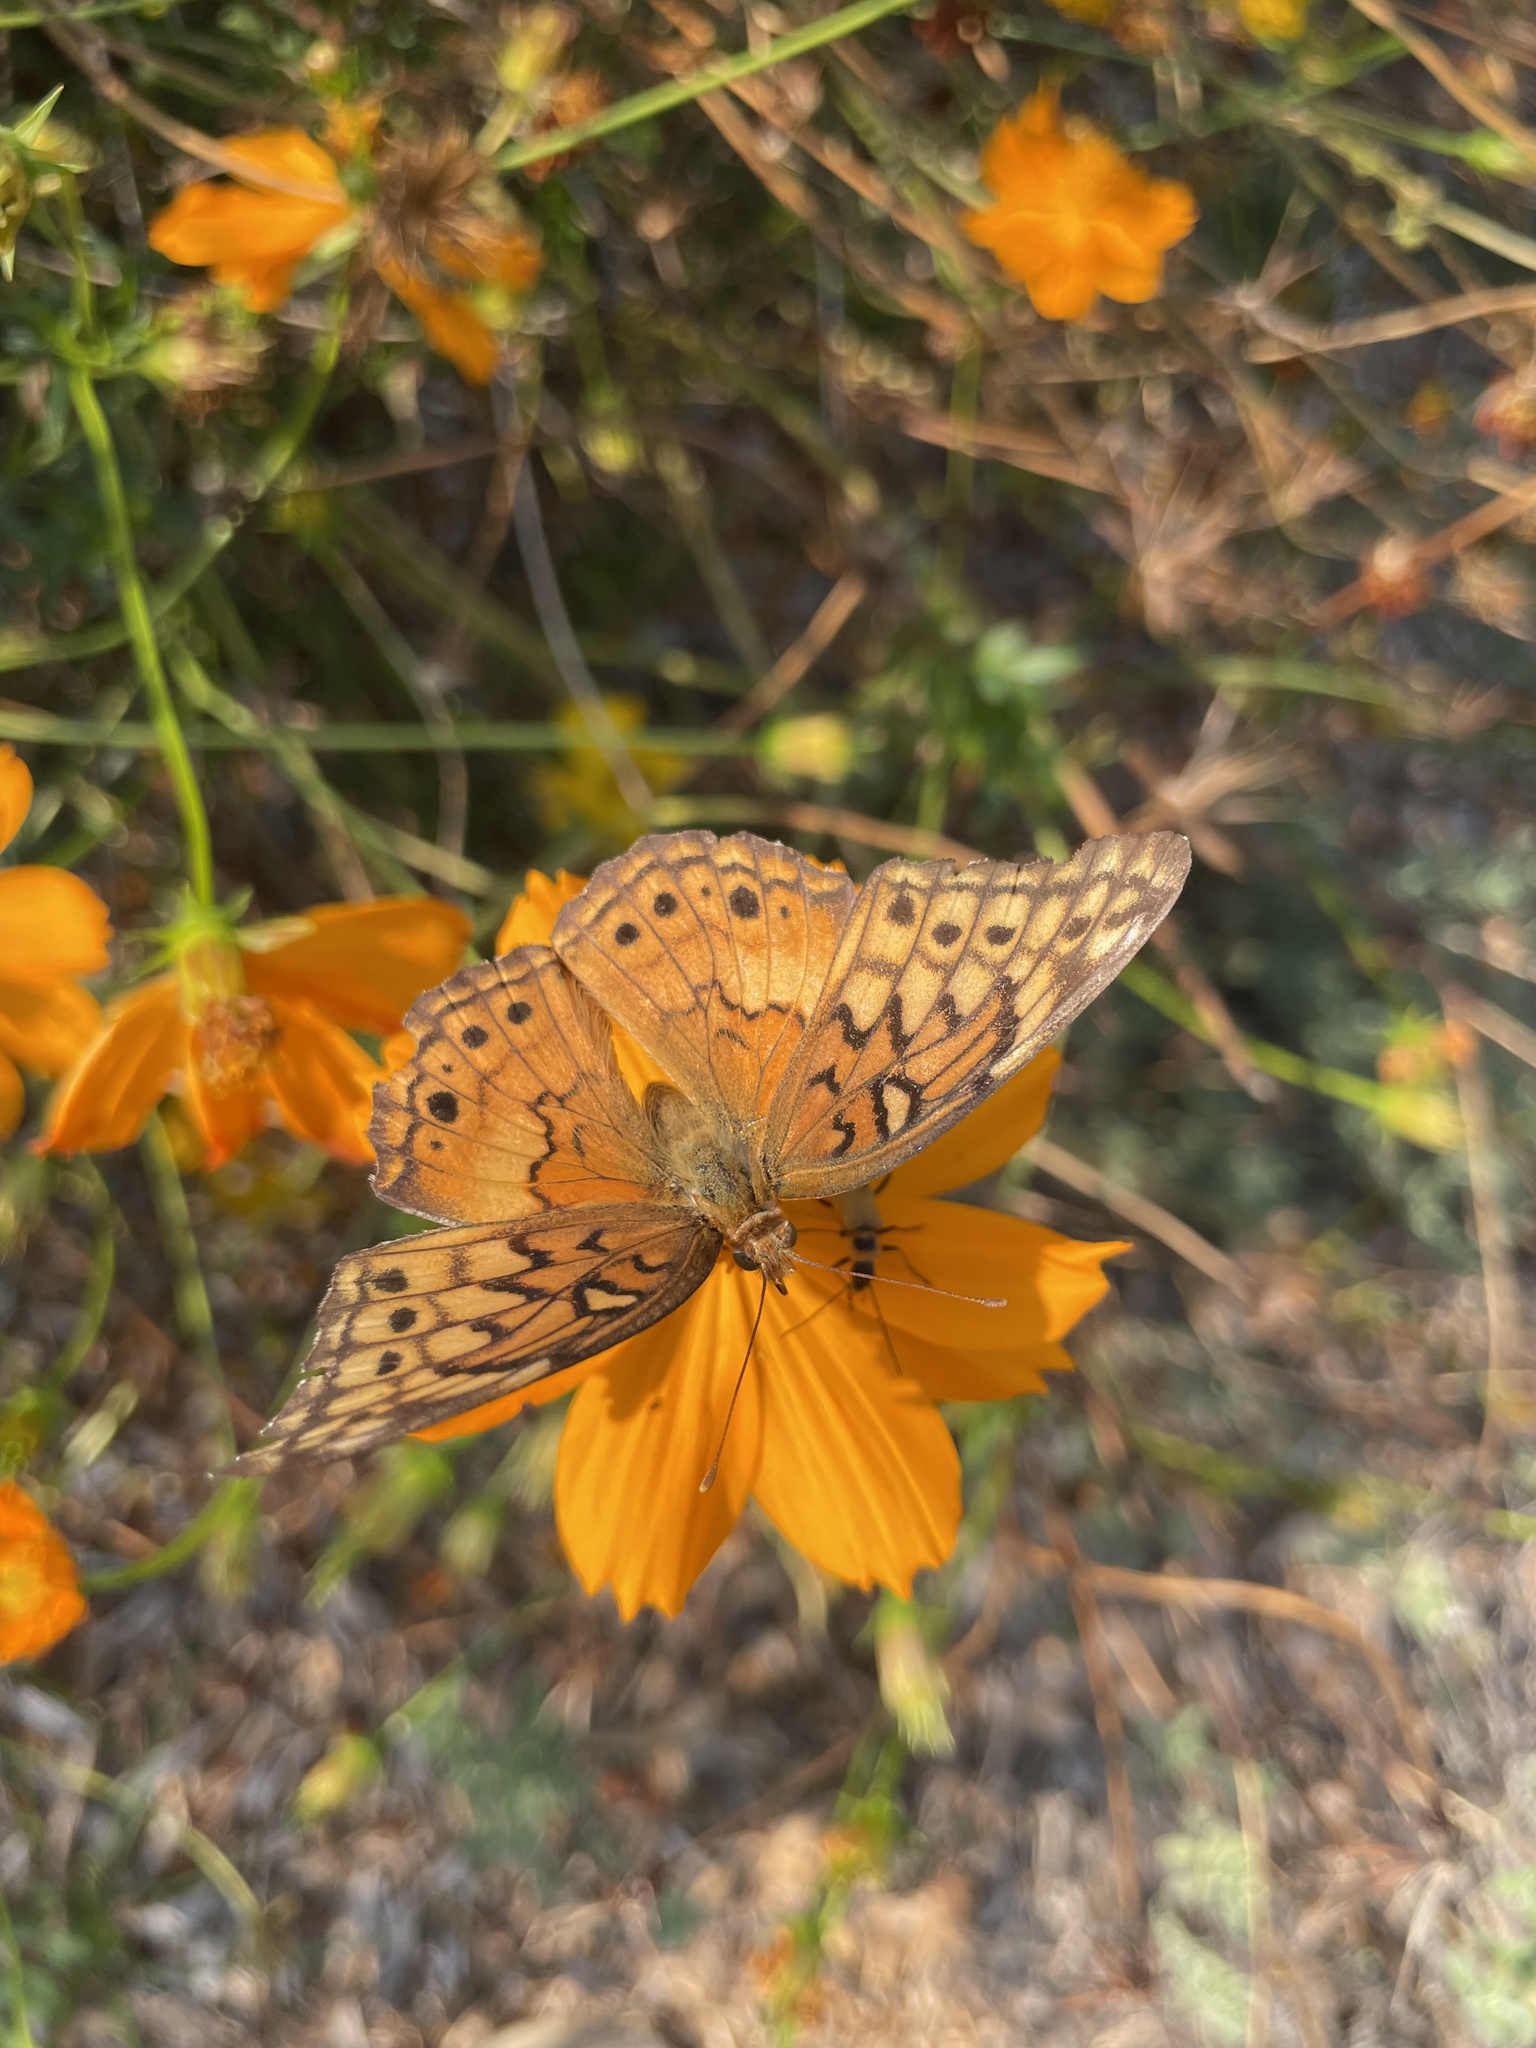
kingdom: Animalia
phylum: Arthropoda
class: Insecta
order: Lepidoptera
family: Nymphalidae
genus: Euptoieta
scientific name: Euptoieta claudia
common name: Variegated fritillary
